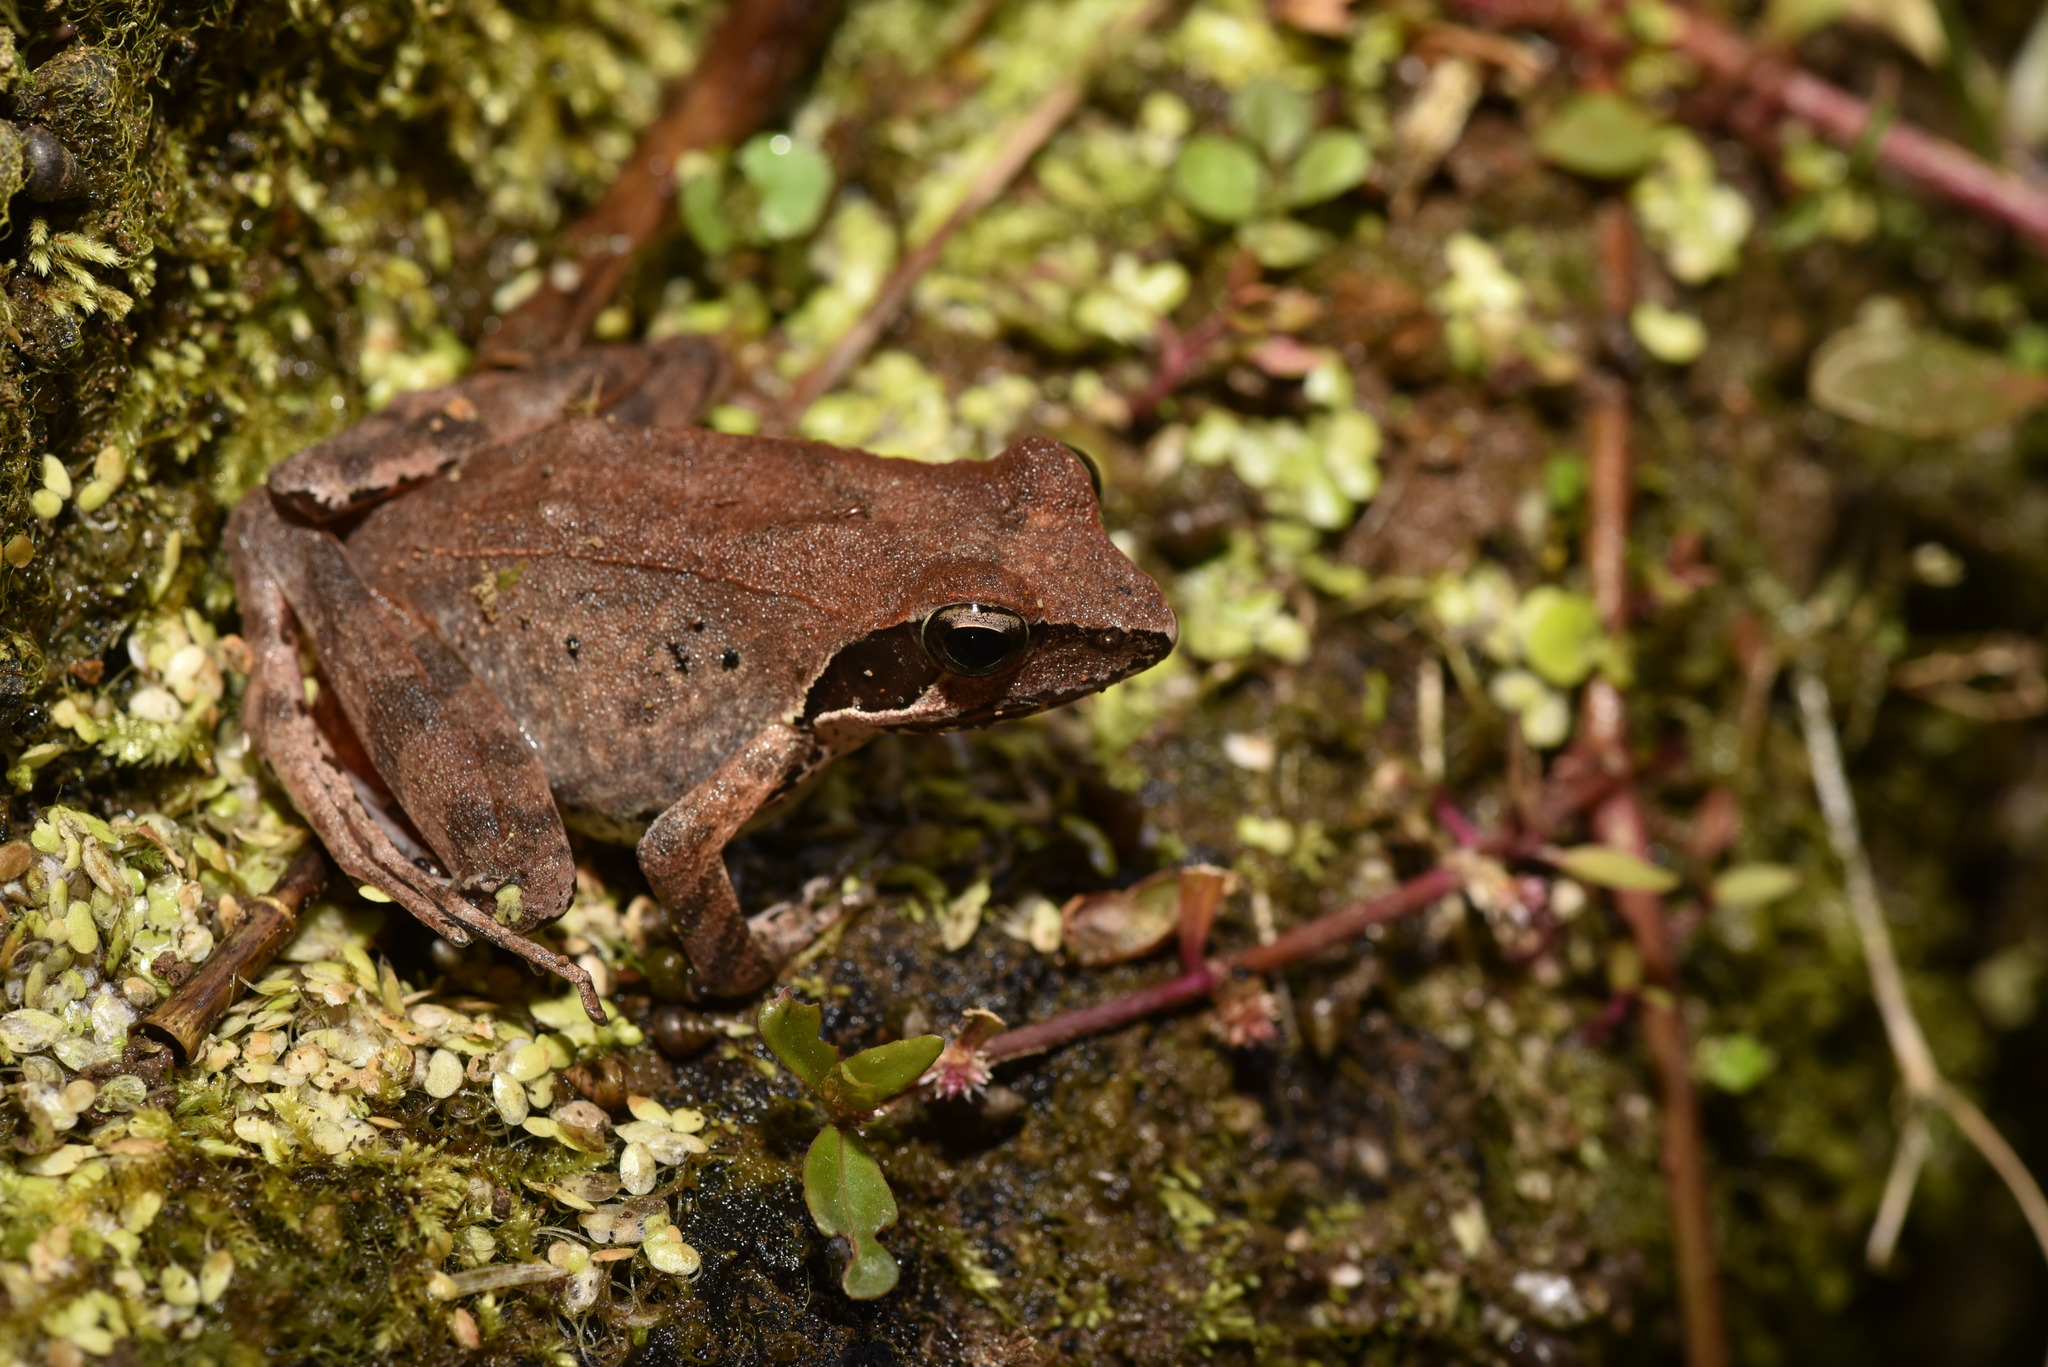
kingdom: Animalia
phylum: Chordata
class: Amphibia
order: Anura
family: Ranidae
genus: Rana
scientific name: Rana sauteri
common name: Kanshirei village frog
